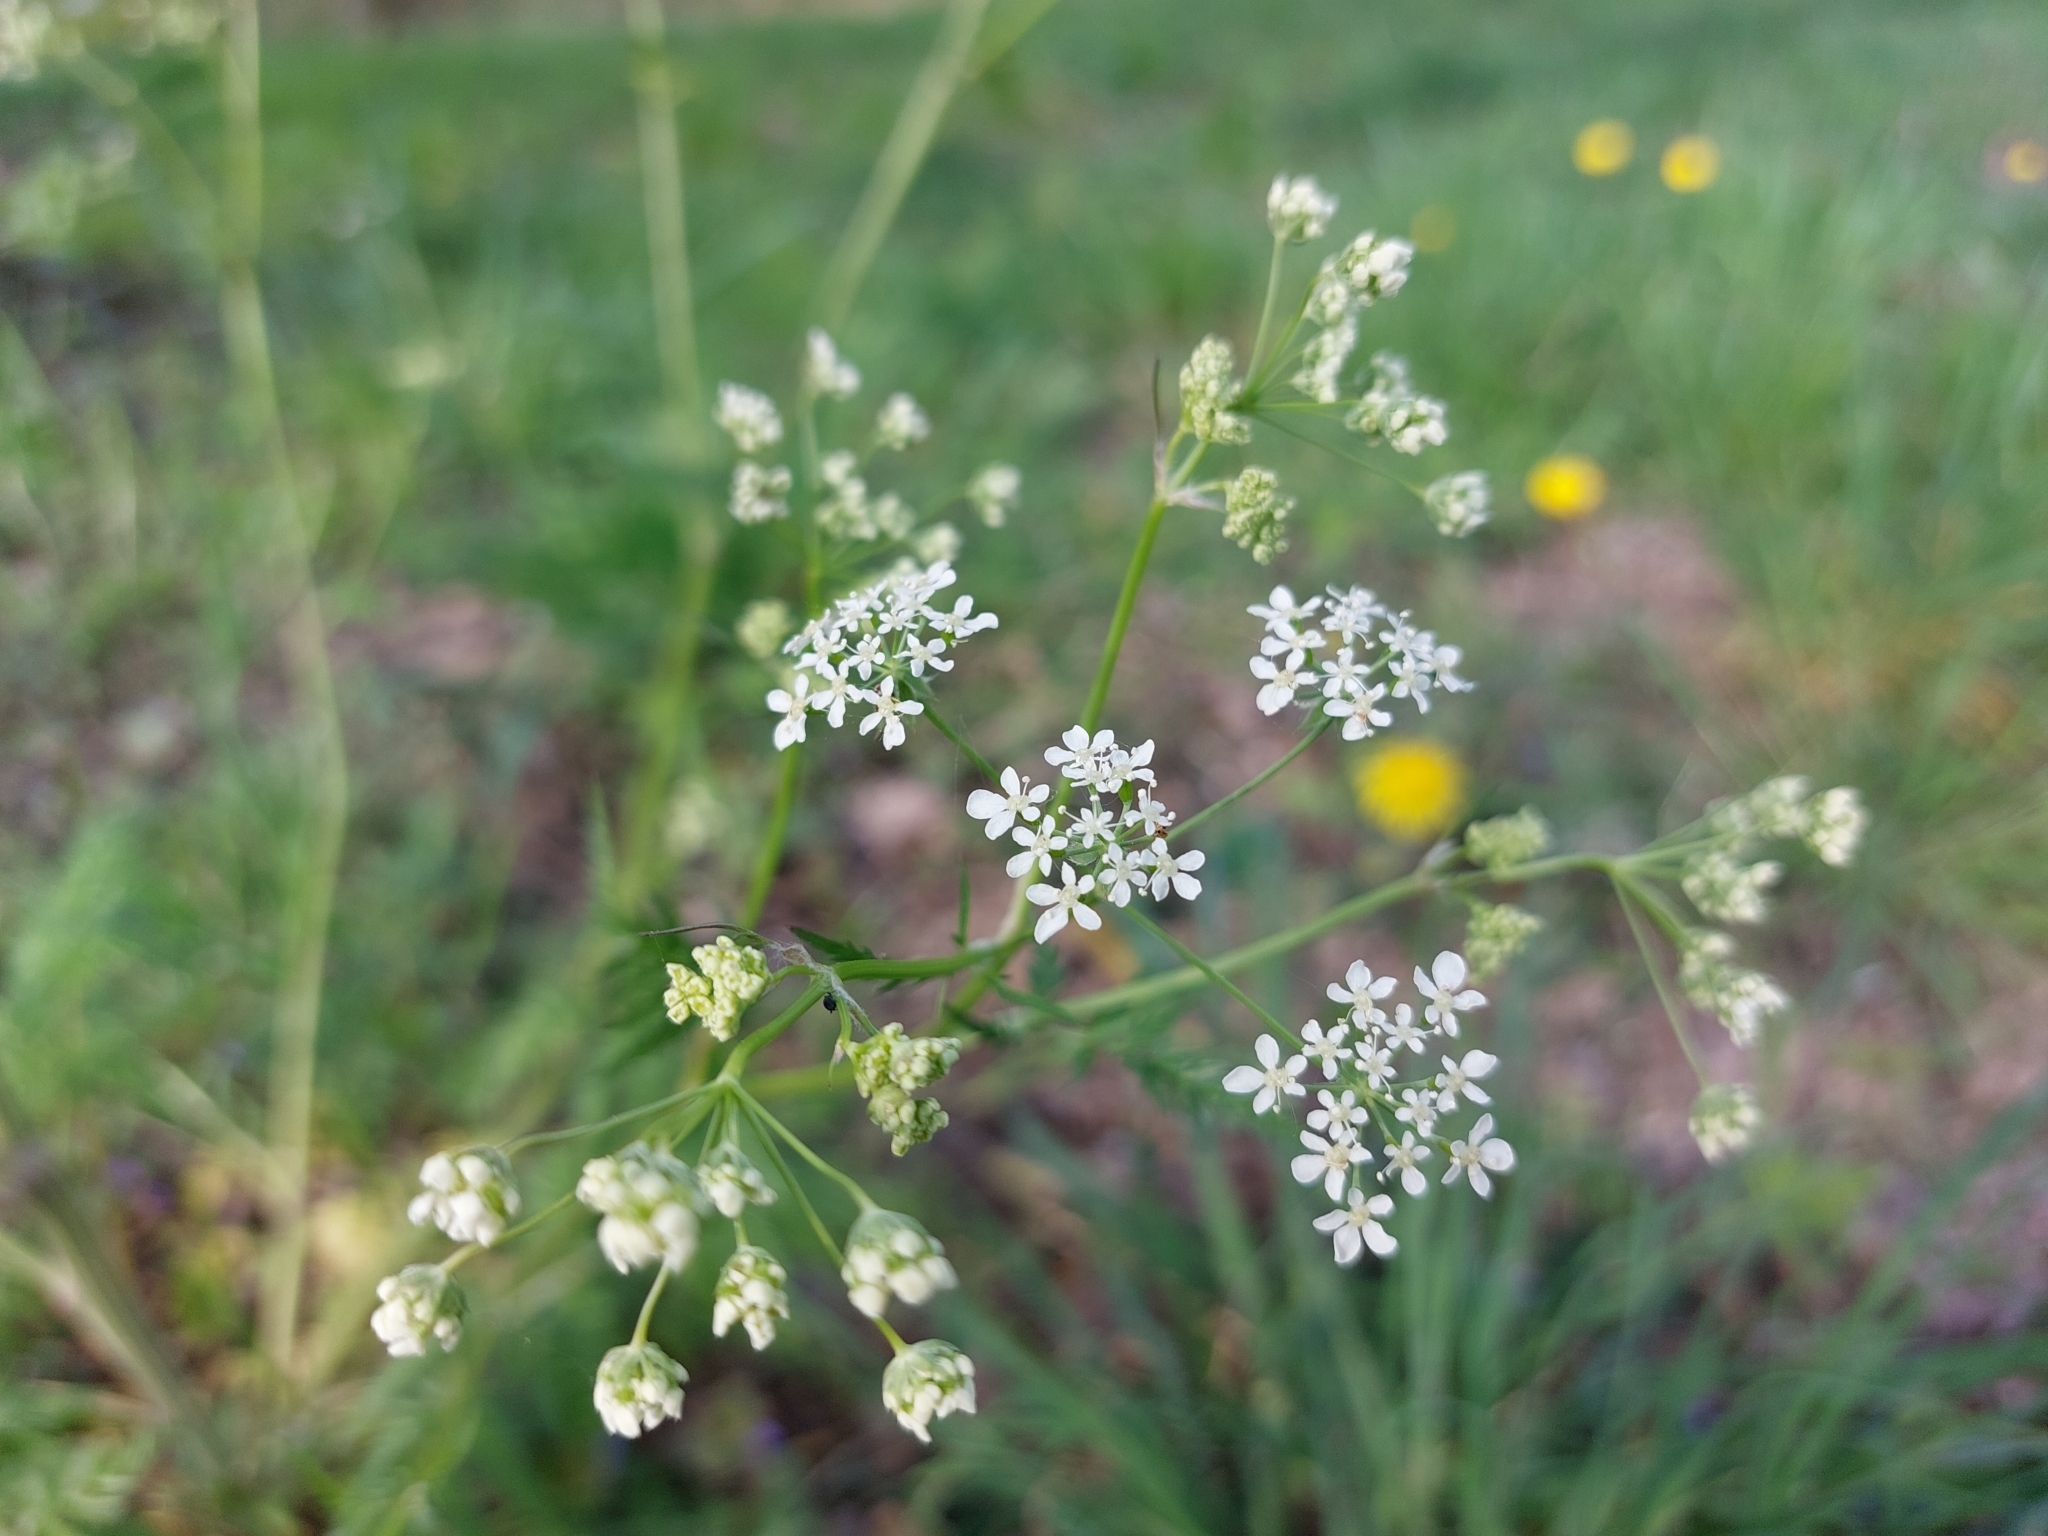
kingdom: Plantae
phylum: Tracheophyta
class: Magnoliopsida
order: Apiales
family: Apiaceae
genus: Anthriscus
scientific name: Anthriscus sylvestris
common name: Cow parsley
